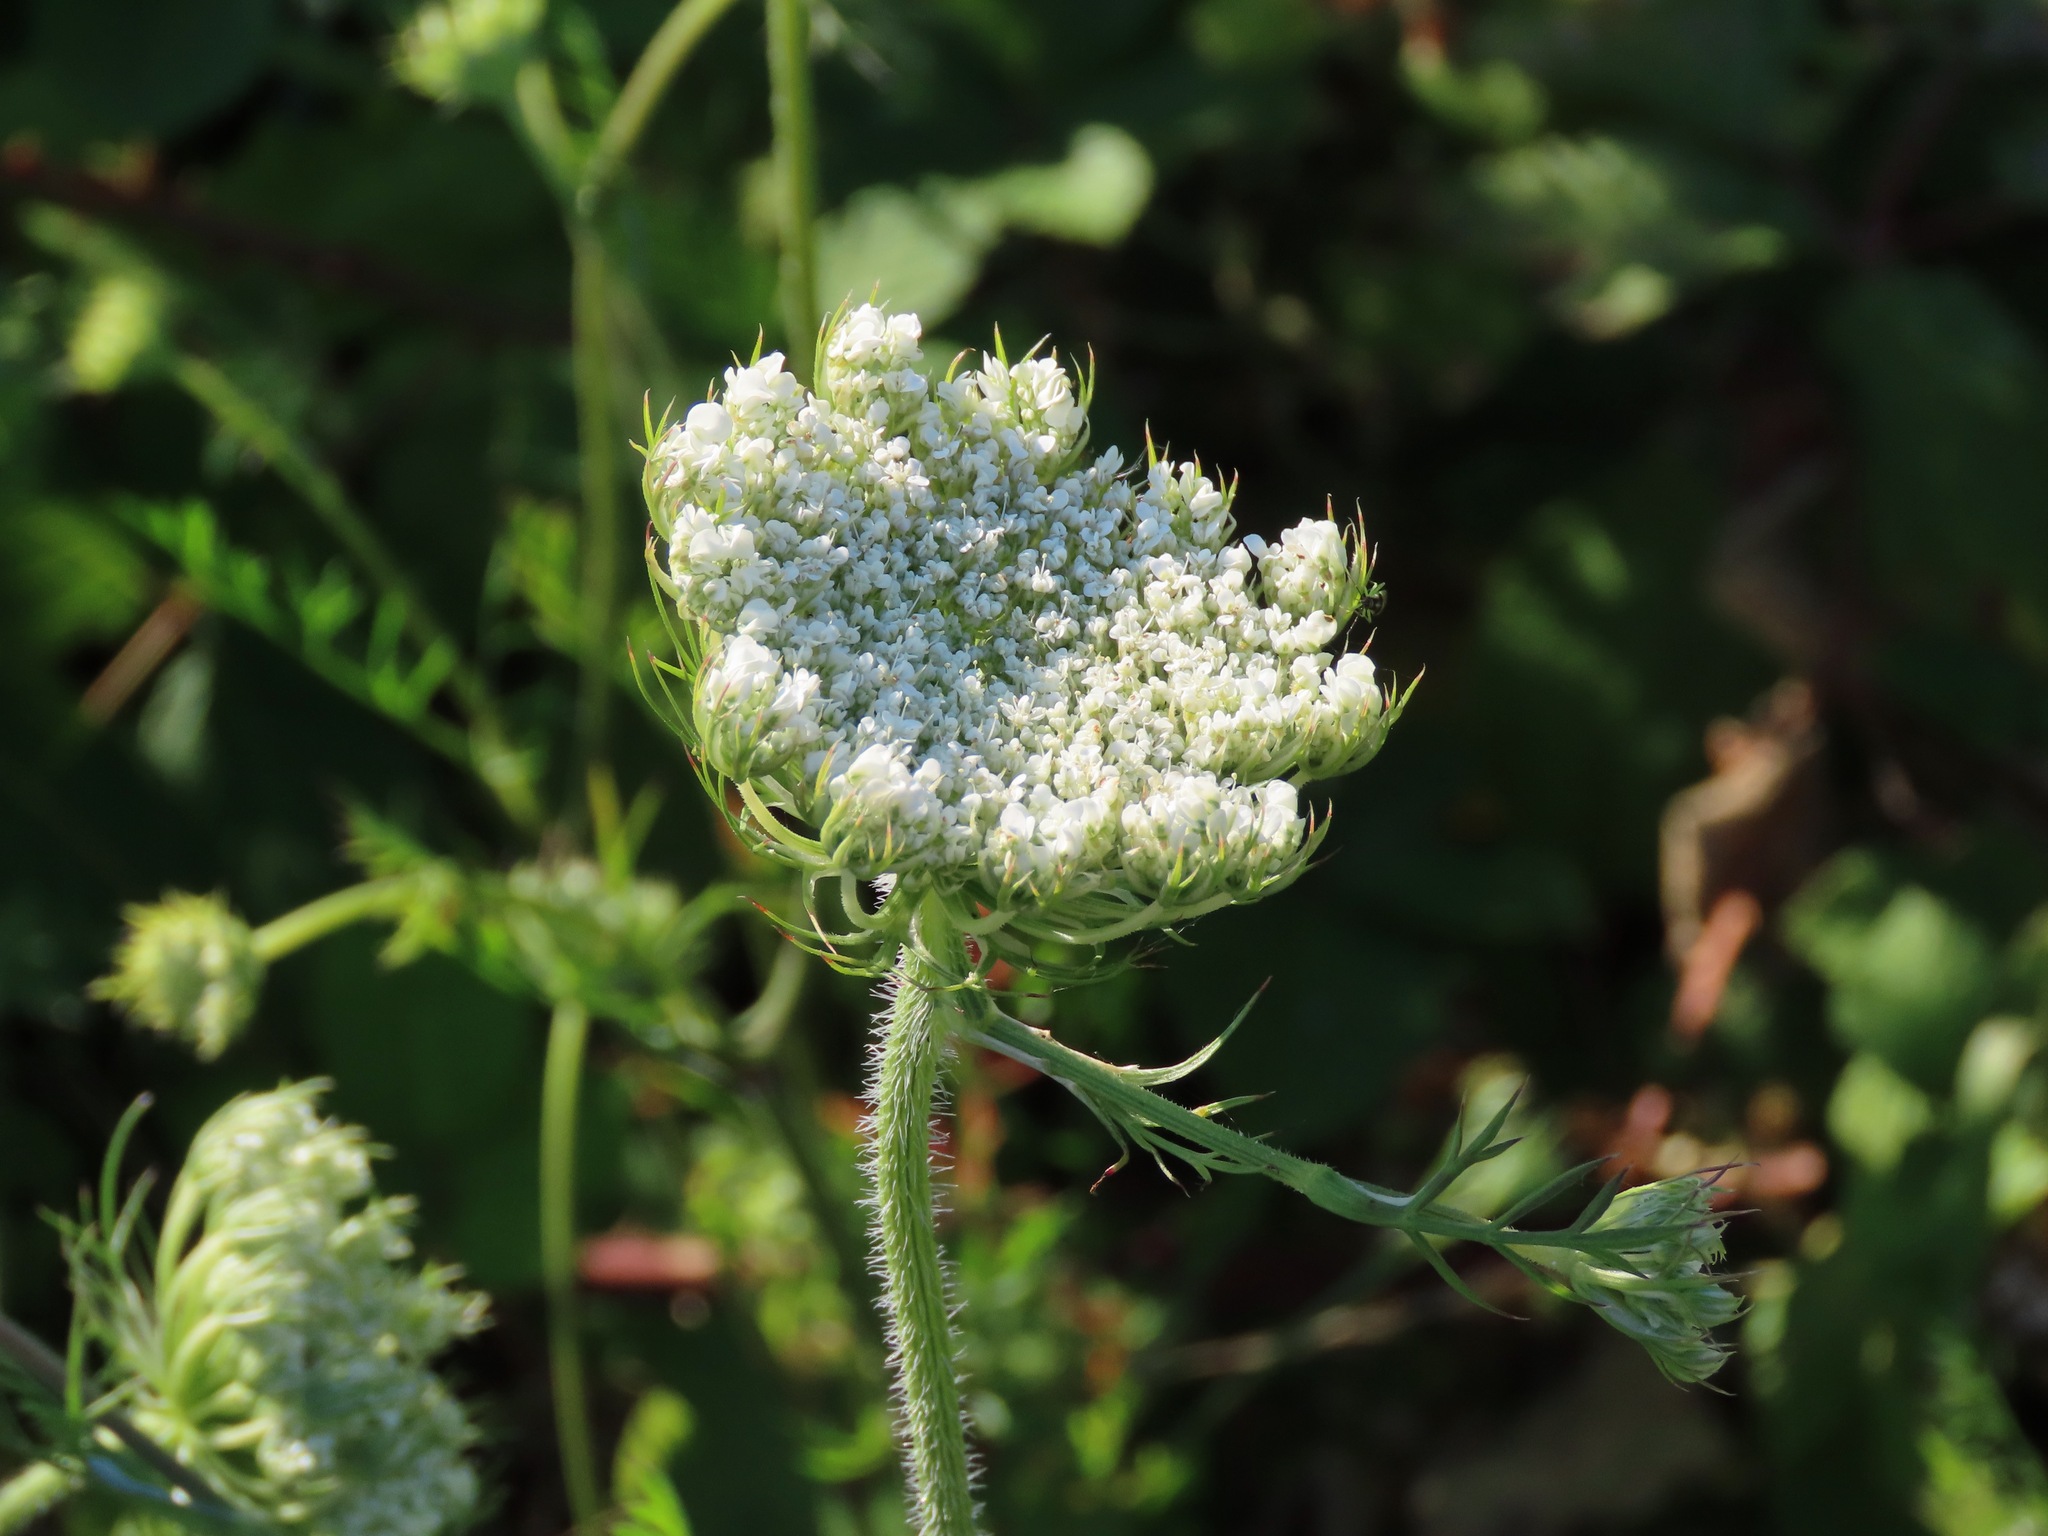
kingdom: Plantae
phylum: Tracheophyta
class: Magnoliopsida
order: Apiales
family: Apiaceae
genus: Daucus
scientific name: Daucus carota
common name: Wild carrot
